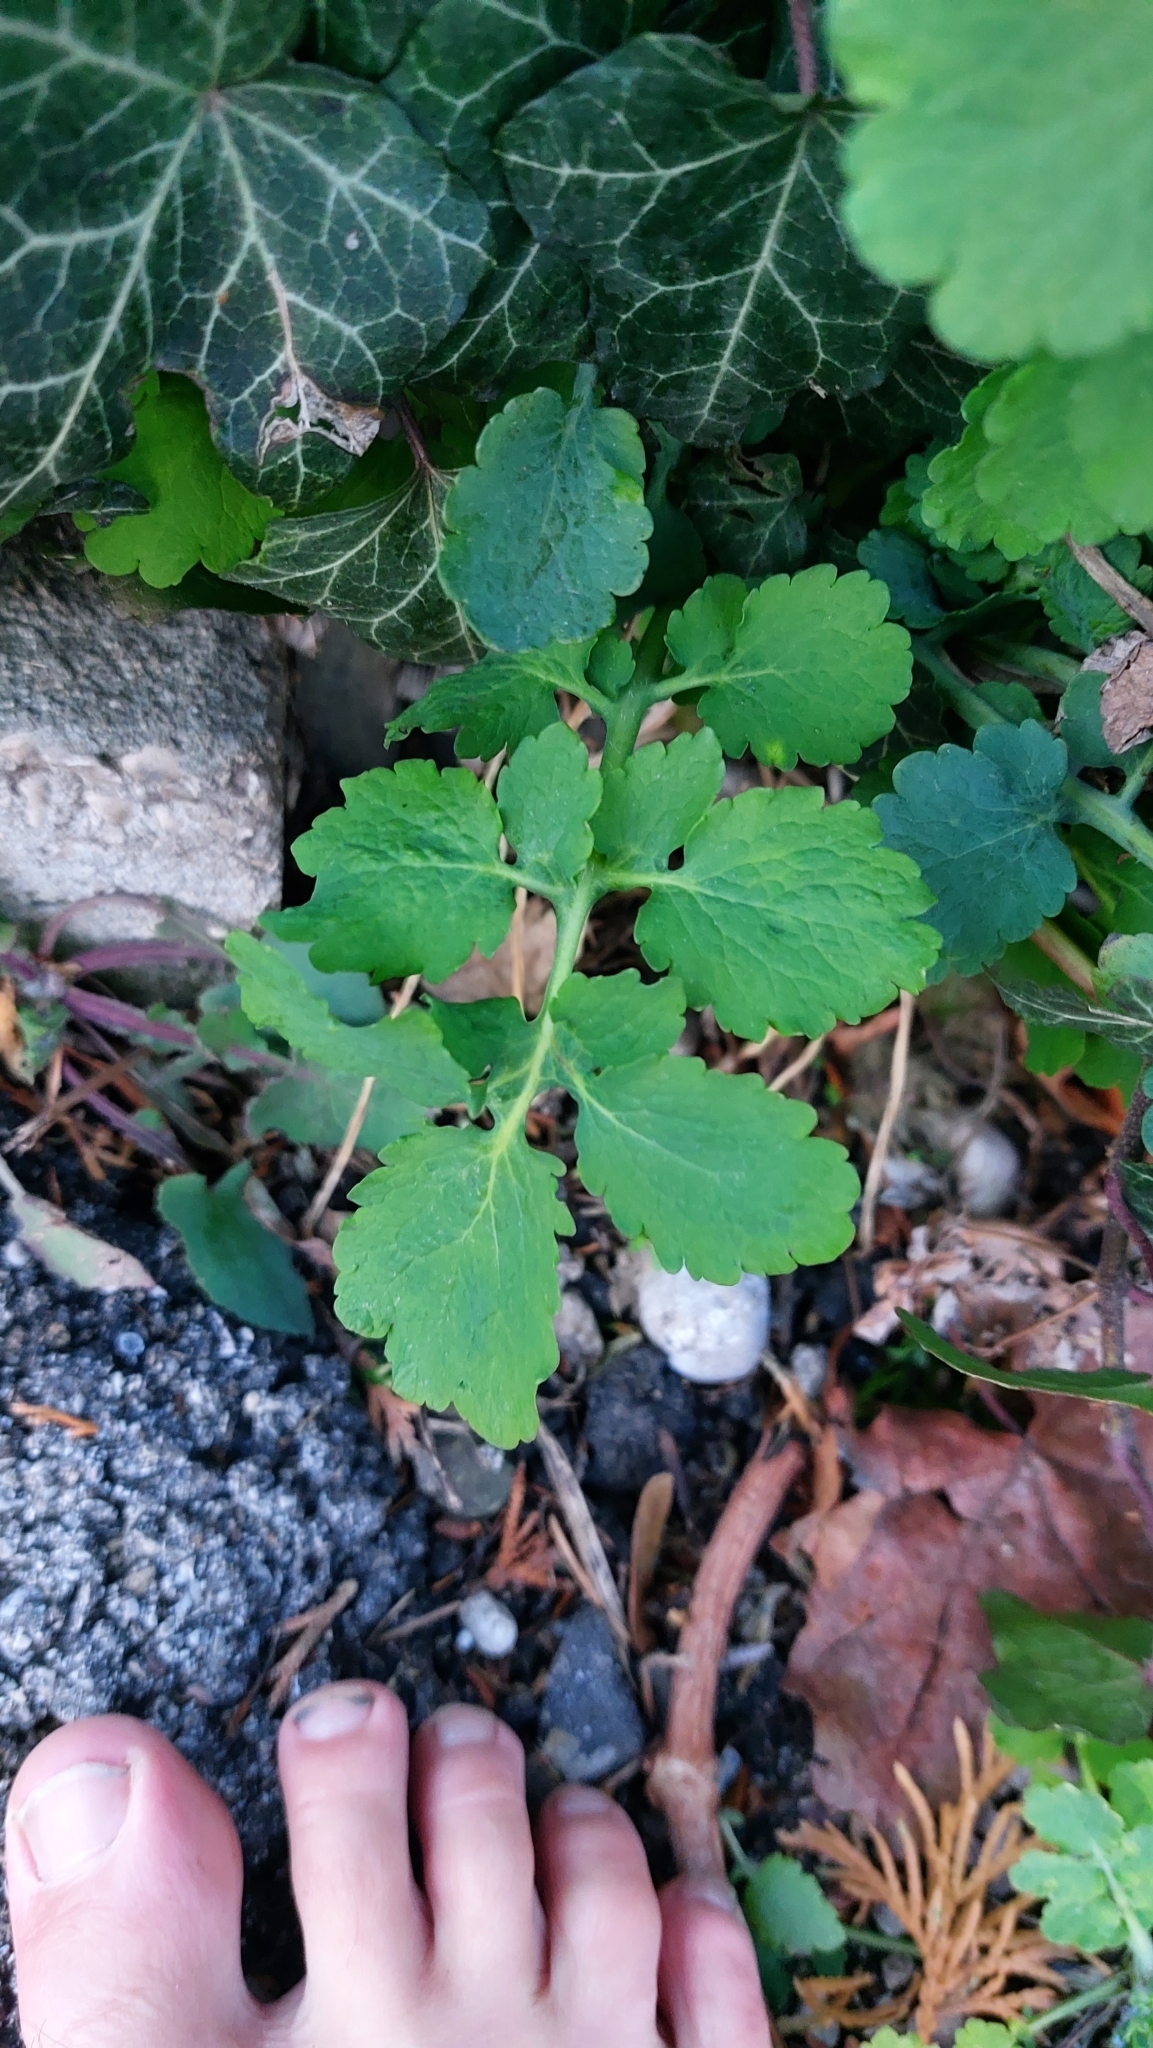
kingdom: Plantae
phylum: Tracheophyta
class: Magnoliopsida
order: Ranunculales
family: Papaveraceae
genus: Chelidonium
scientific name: Chelidonium majus
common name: Greater celandine
